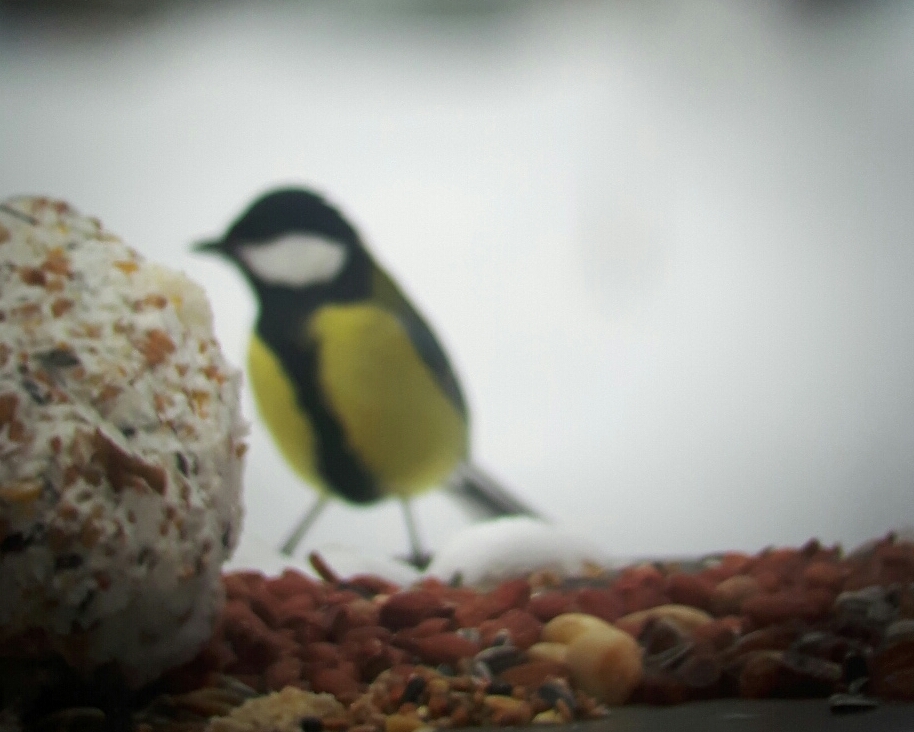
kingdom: Animalia
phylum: Chordata
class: Aves
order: Passeriformes
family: Paridae
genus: Parus
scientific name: Parus major
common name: Great tit
